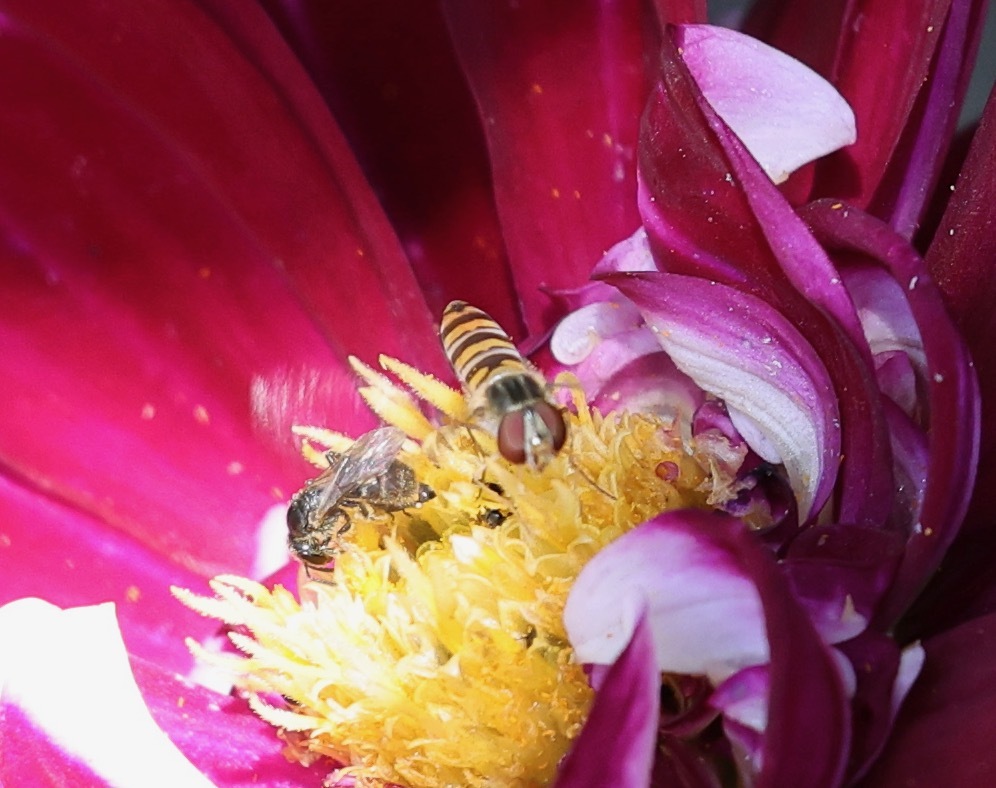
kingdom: Animalia
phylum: Arthropoda
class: Insecta
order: Diptera
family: Syrphidae
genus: Episyrphus
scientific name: Episyrphus balteatus
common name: Marmalade hoverfly
